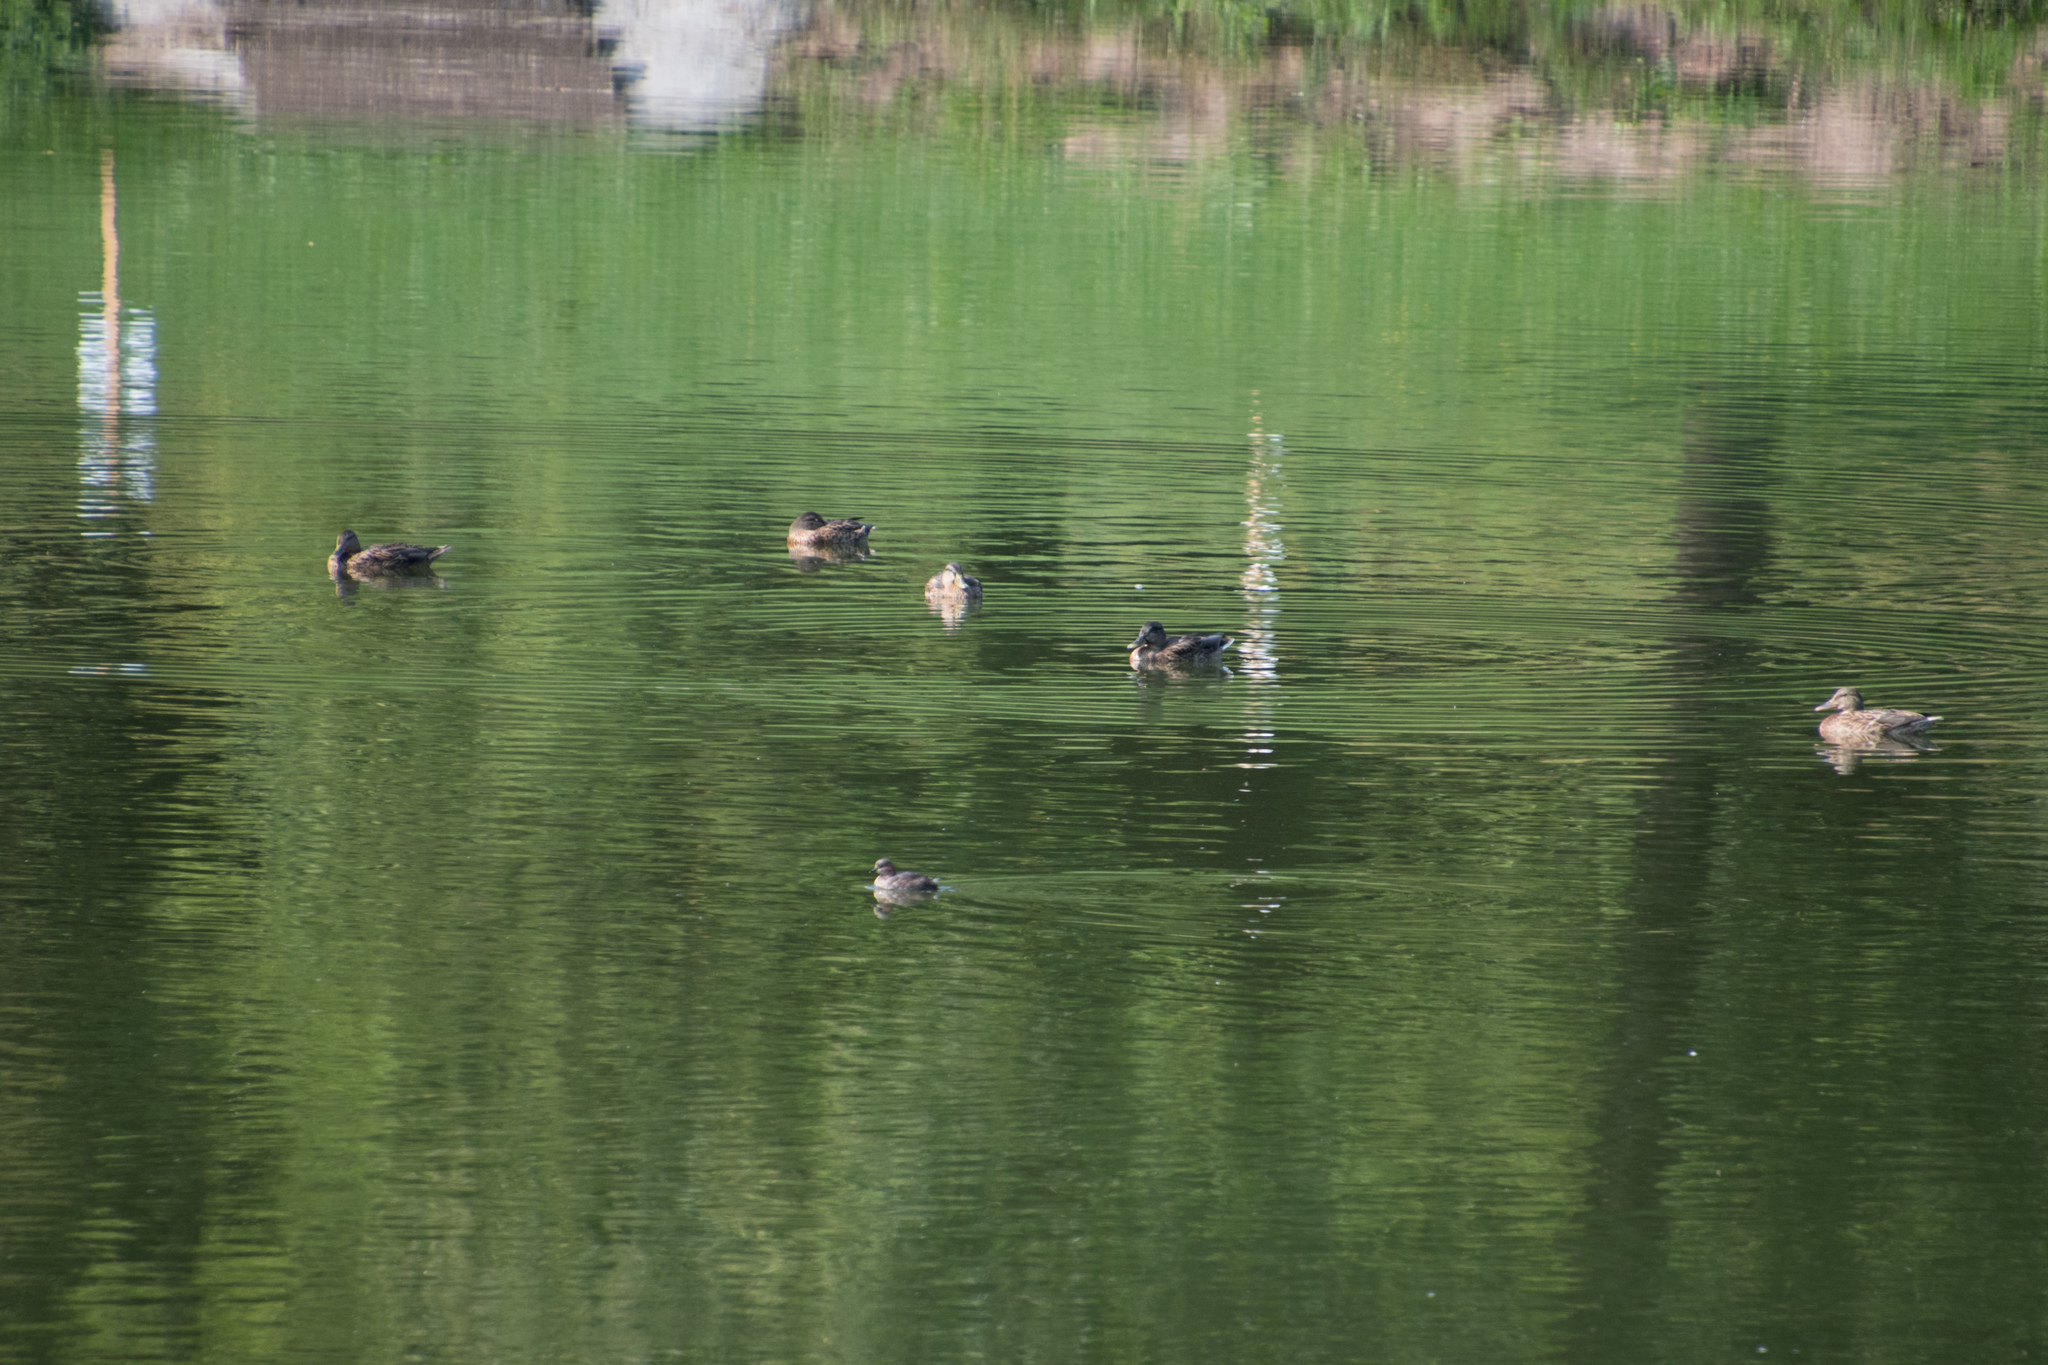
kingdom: Animalia
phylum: Chordata
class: Aves
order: Anseriformes
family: Anatidae
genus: Anas
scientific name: Anas platyrhynchos
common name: Mallard
